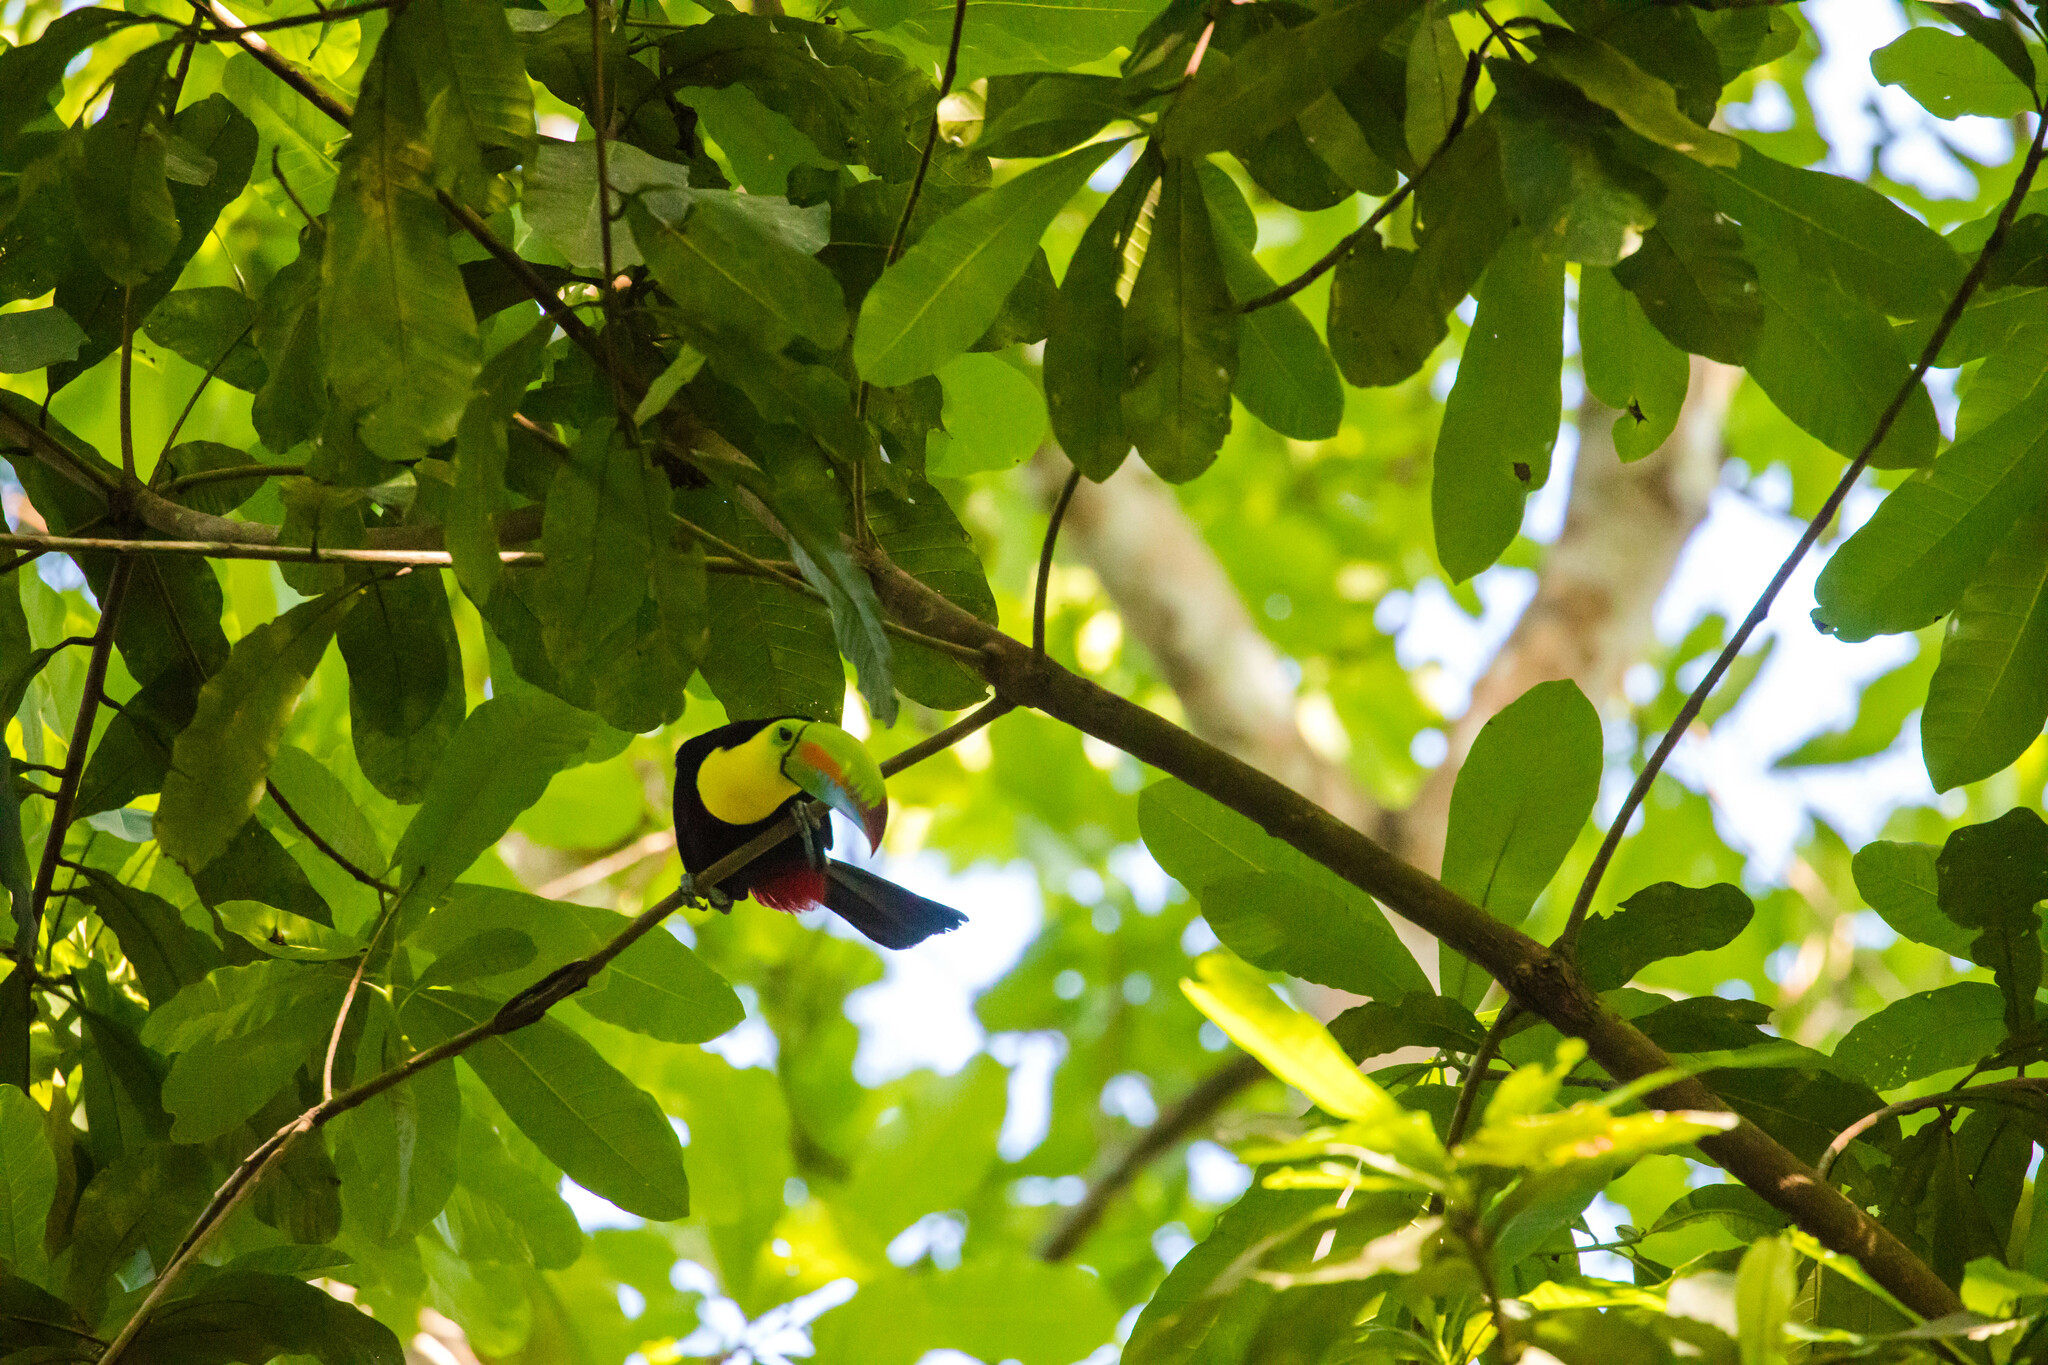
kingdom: Animalia
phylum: Chordata
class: Aves
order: Piciformes
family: Ramphastidae
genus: Ramphastos
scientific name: Ramphastos sulfuratus
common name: Keel-billed toucan
